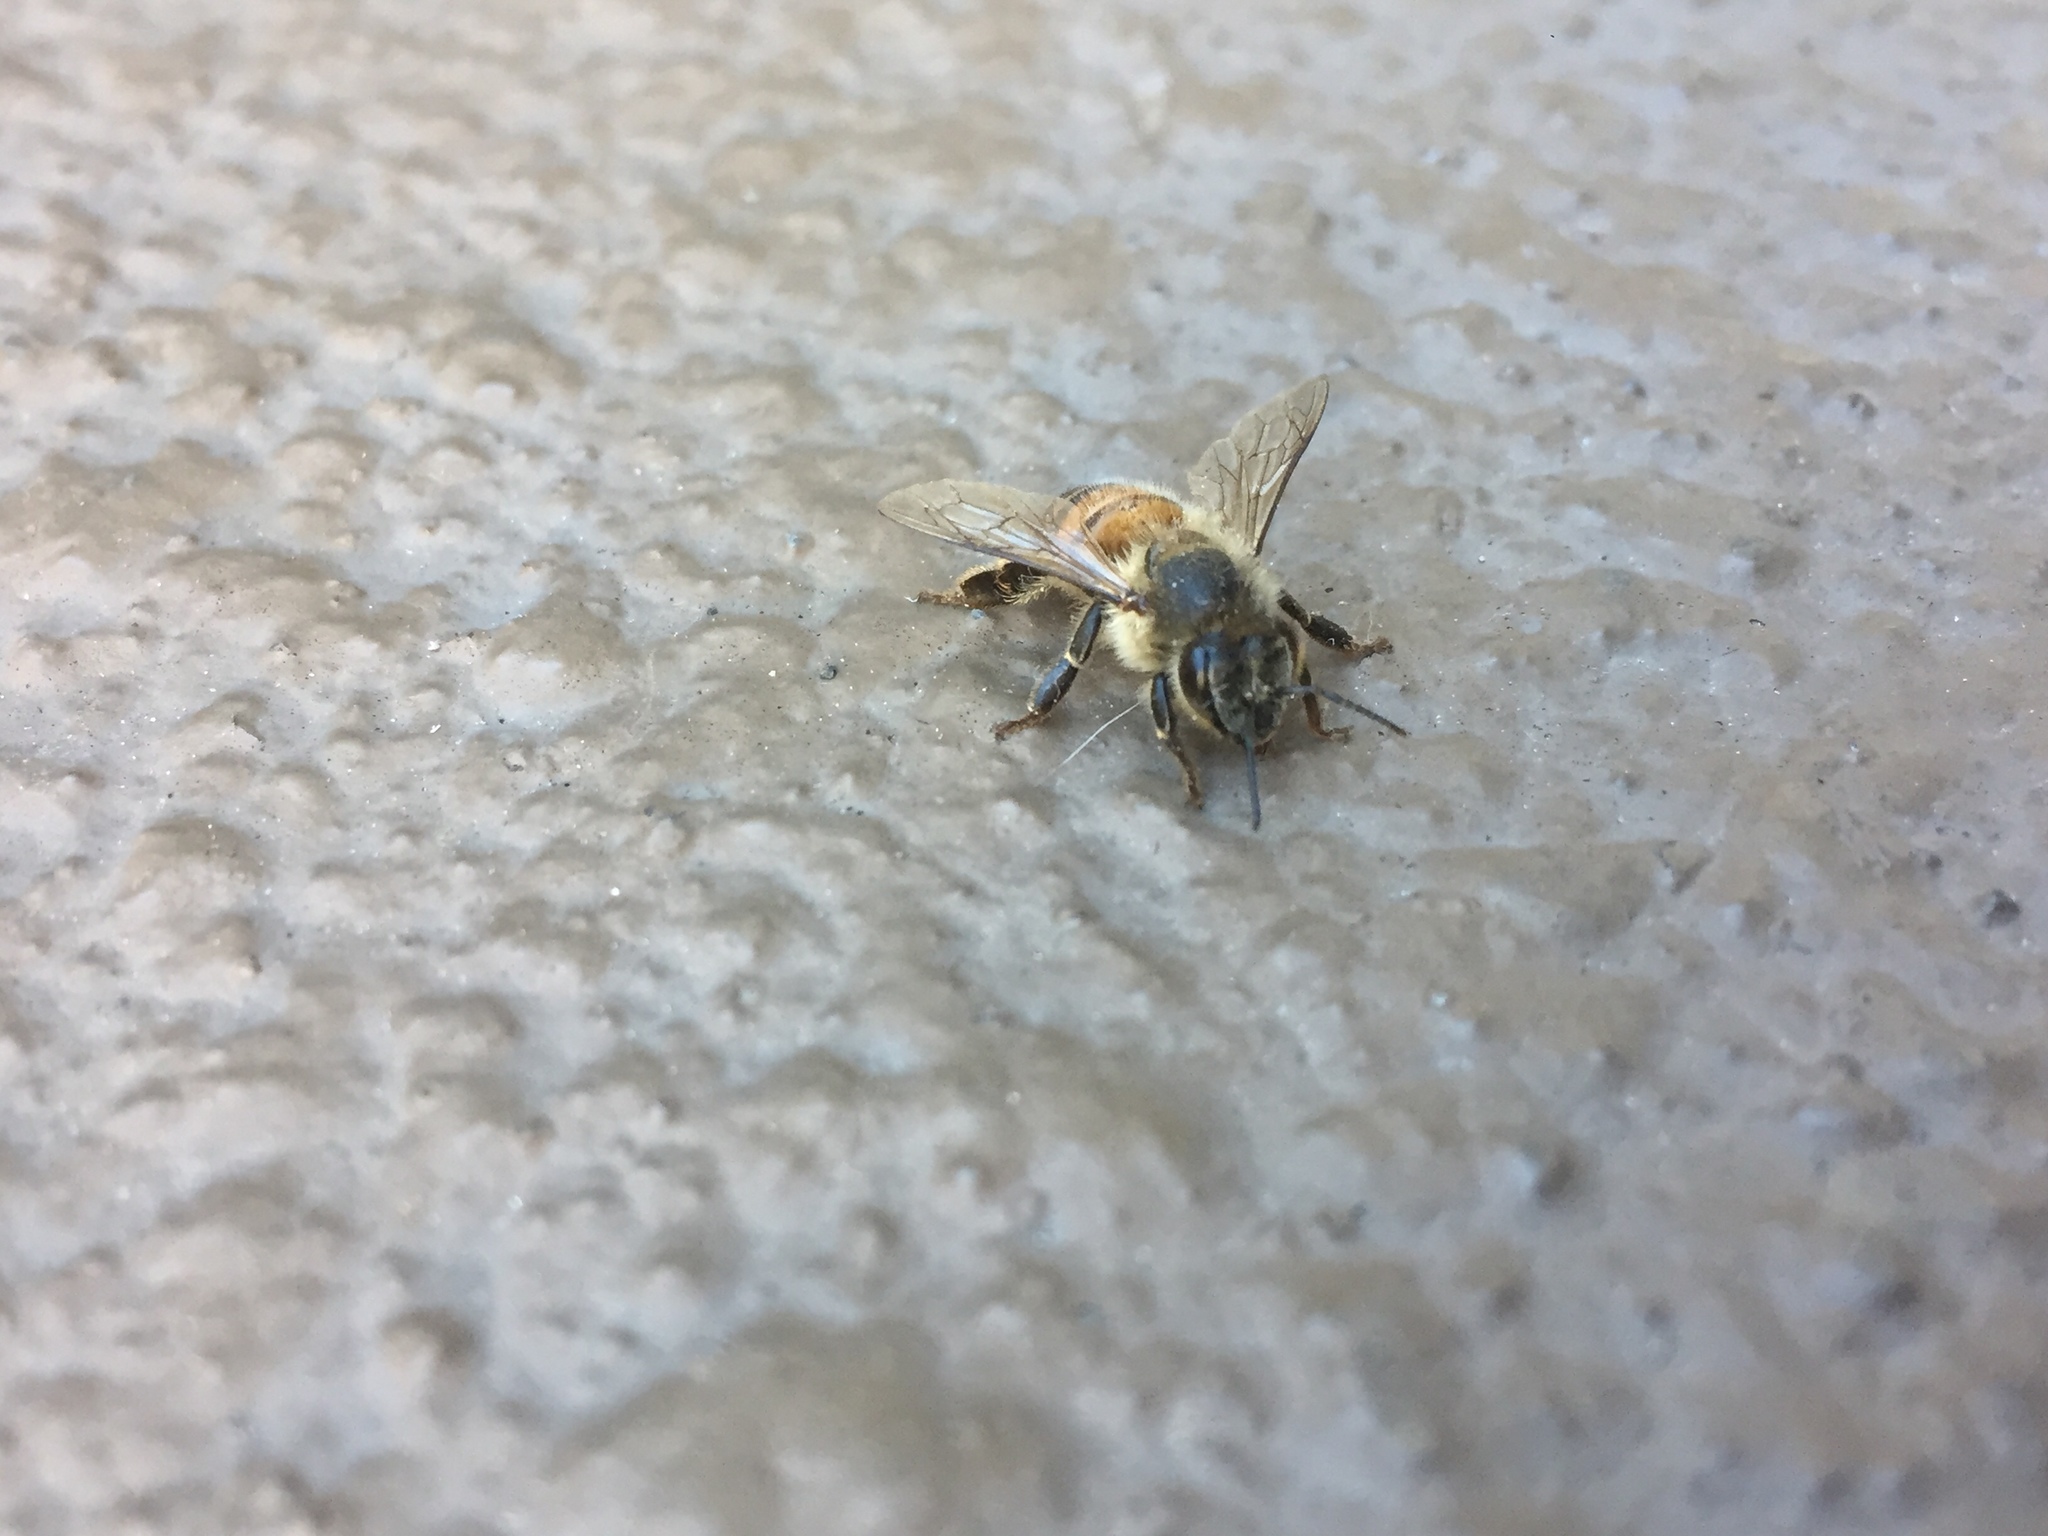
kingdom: Animalia
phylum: Arthropoda
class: Insecta
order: Hymenoptera
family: Apidae
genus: Apis
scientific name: Apis mellifera
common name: Honey bee
